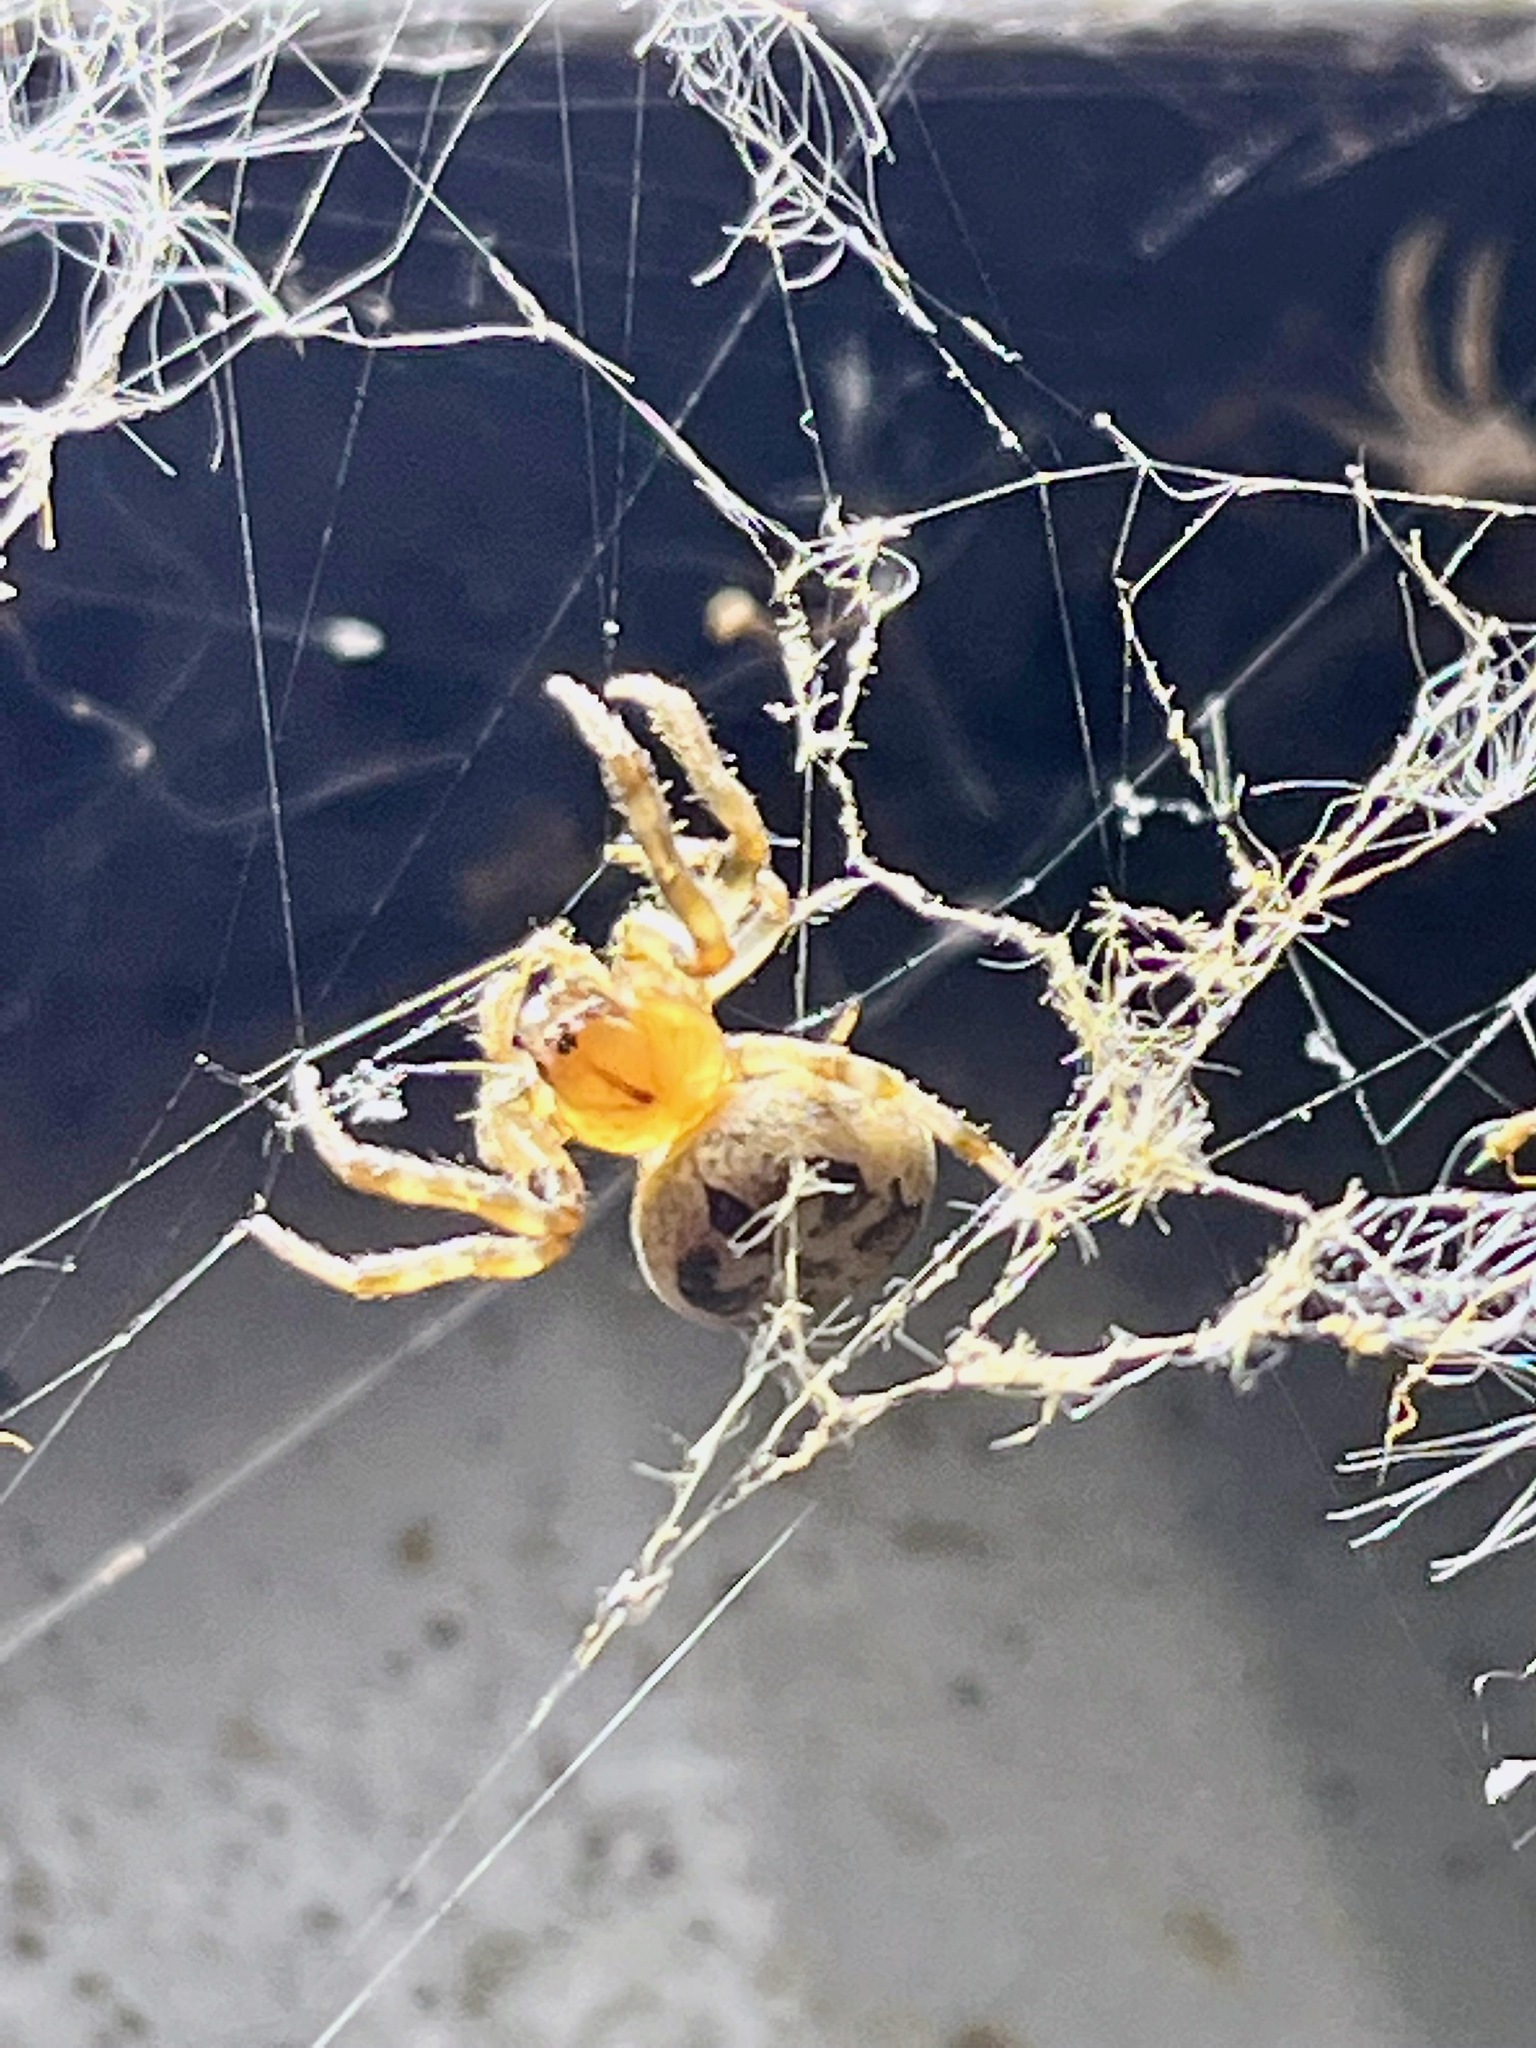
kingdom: Animalia
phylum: Arthropoda
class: Arachnida
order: Araneae
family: Araneidae
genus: Larinioides
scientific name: Larinioides cornutus
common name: Furrow orbweaver
